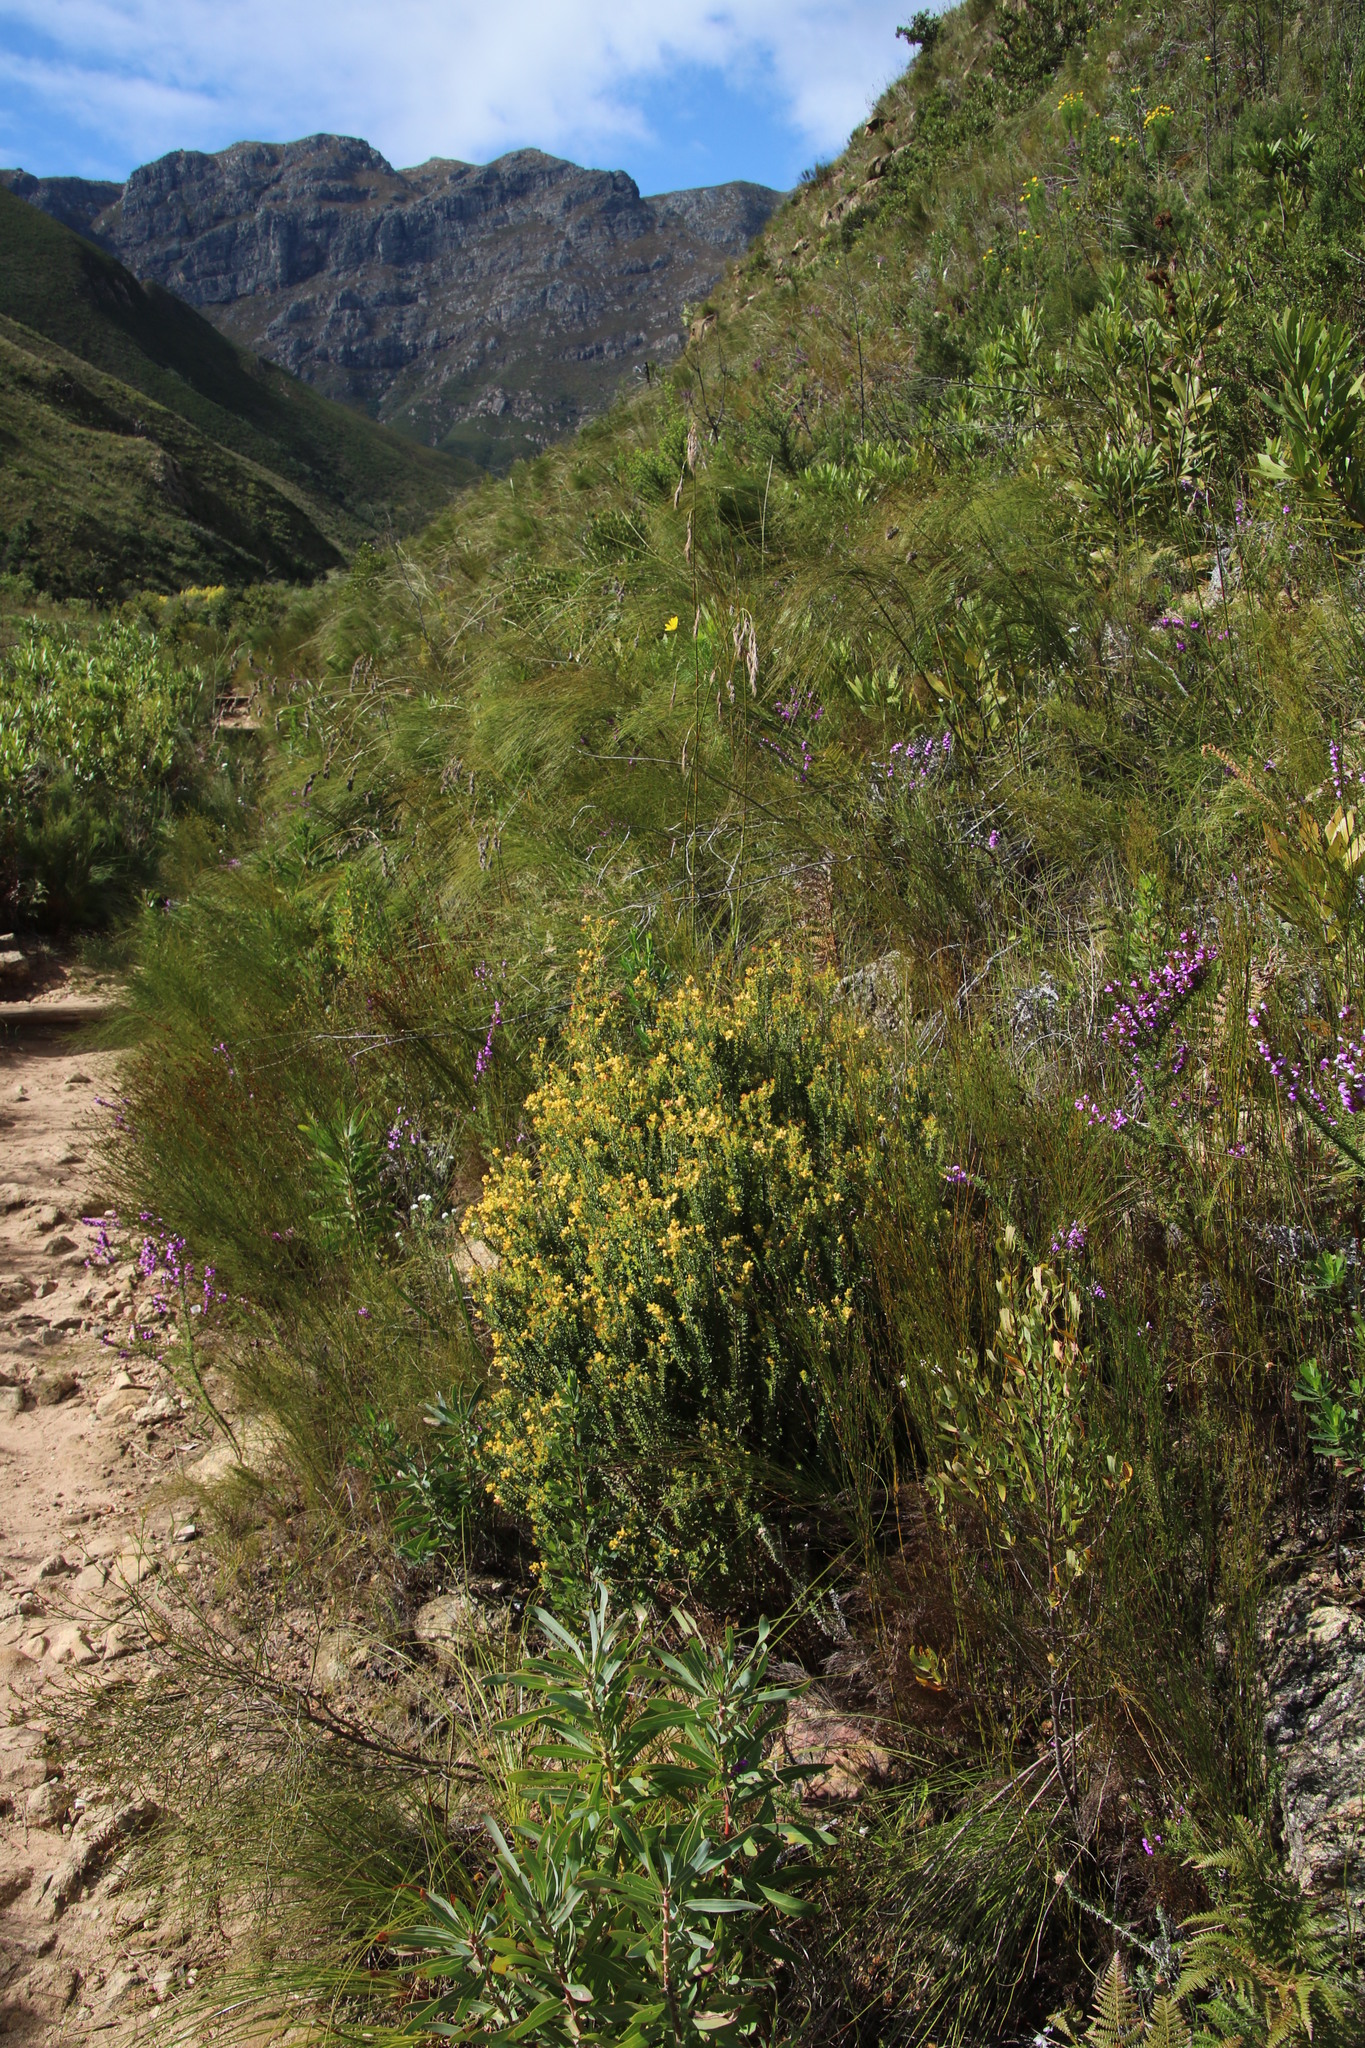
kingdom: Plantae
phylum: Tracheophyta
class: Magnoliopsida
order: Myrtales
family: Penaeaceae
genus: Penaea
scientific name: Penaea mucronata
